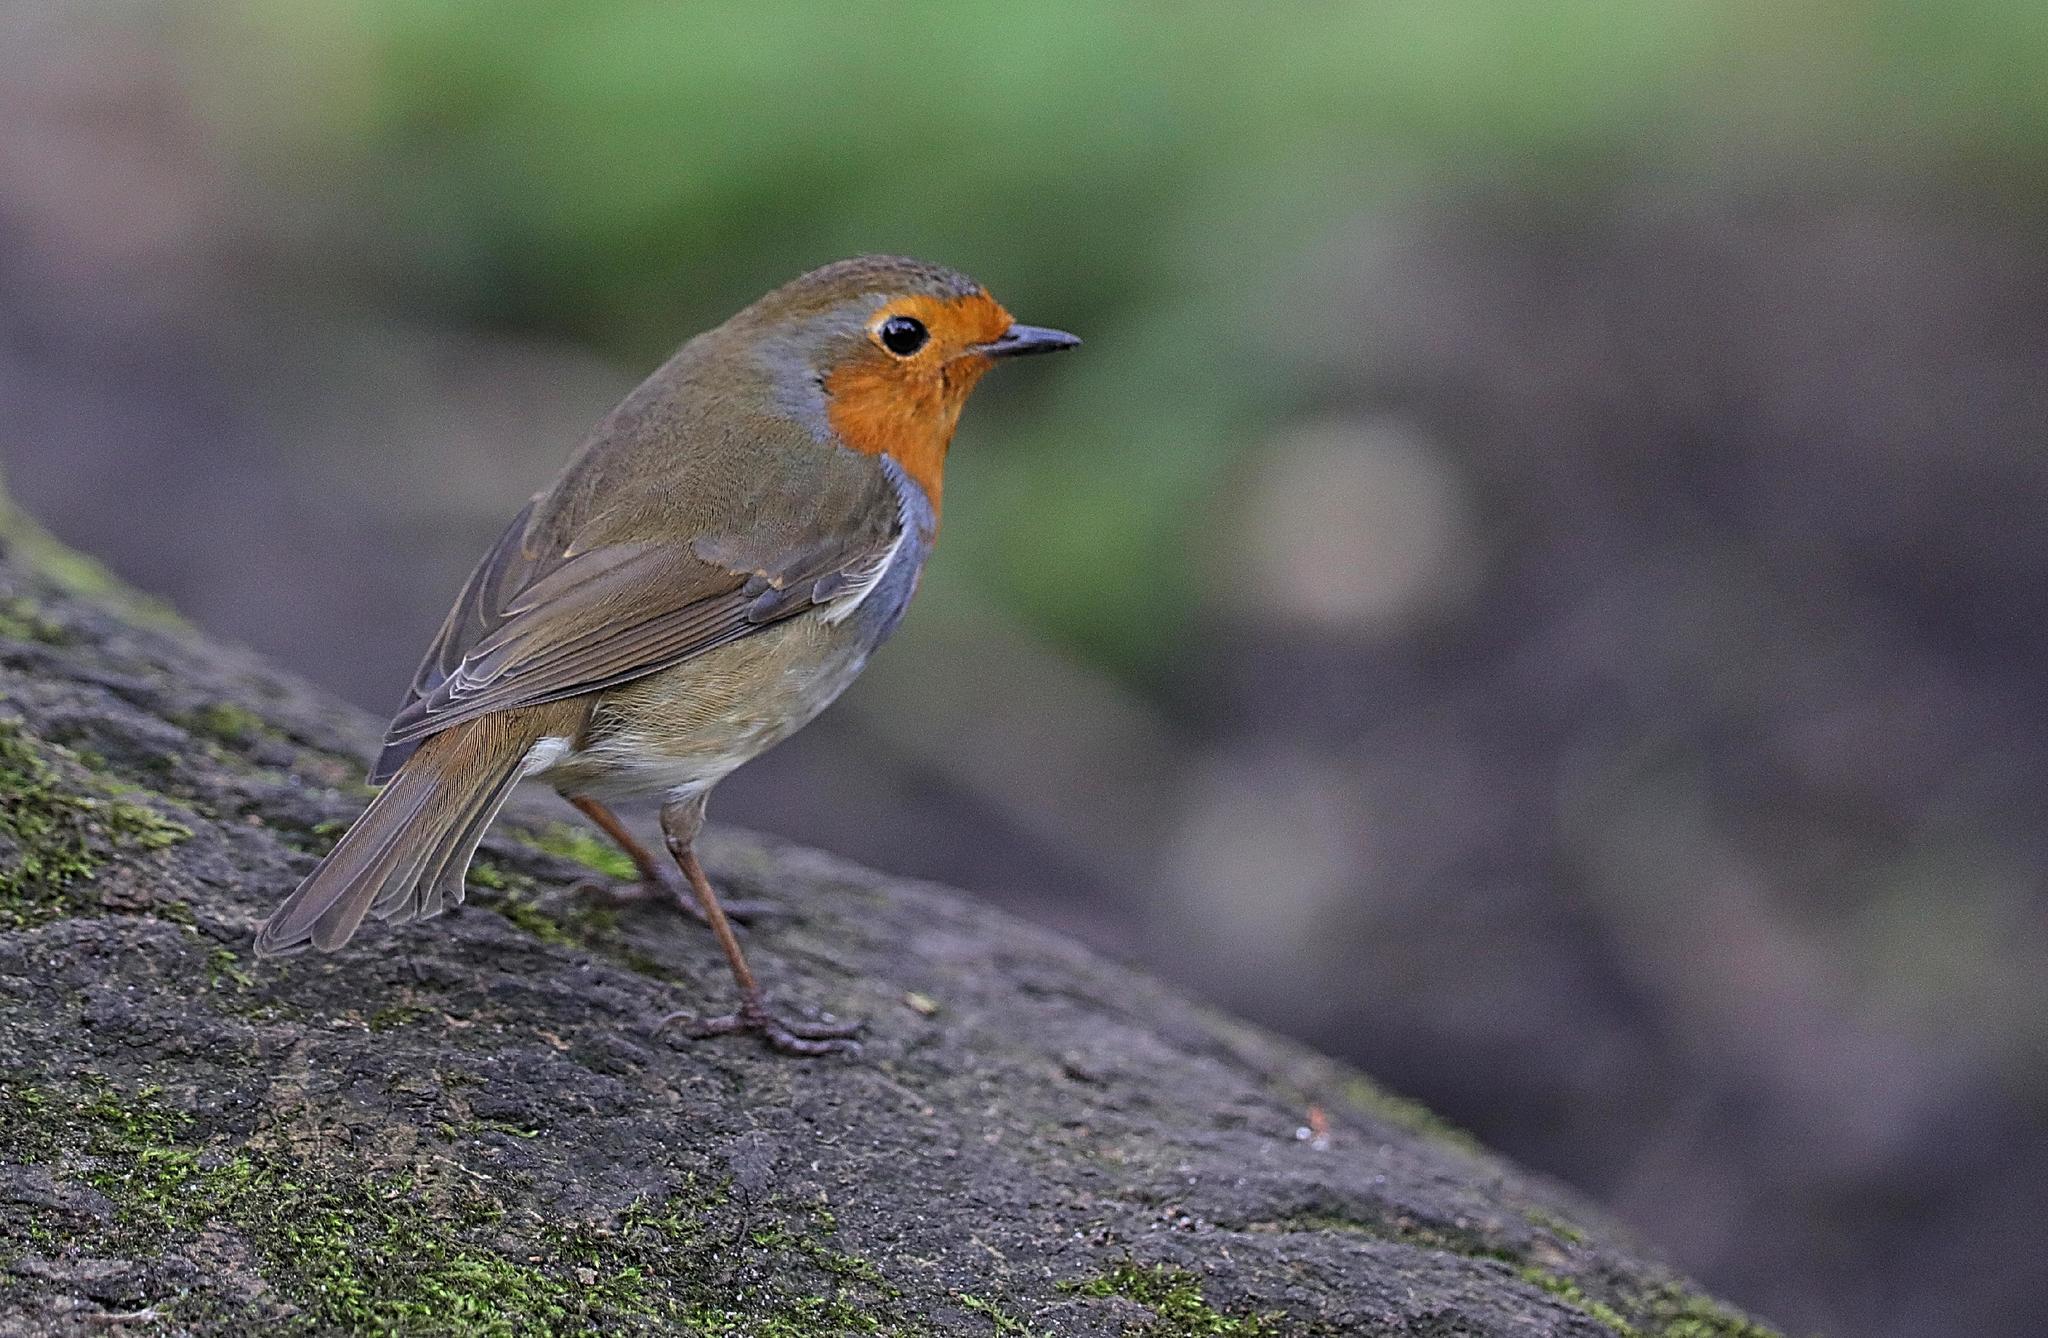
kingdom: Animalia
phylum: Chordata
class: Aves
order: Passeriformes
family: Muscicapidae
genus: Erithacus
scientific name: Erithacus rubecula
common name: European robin
